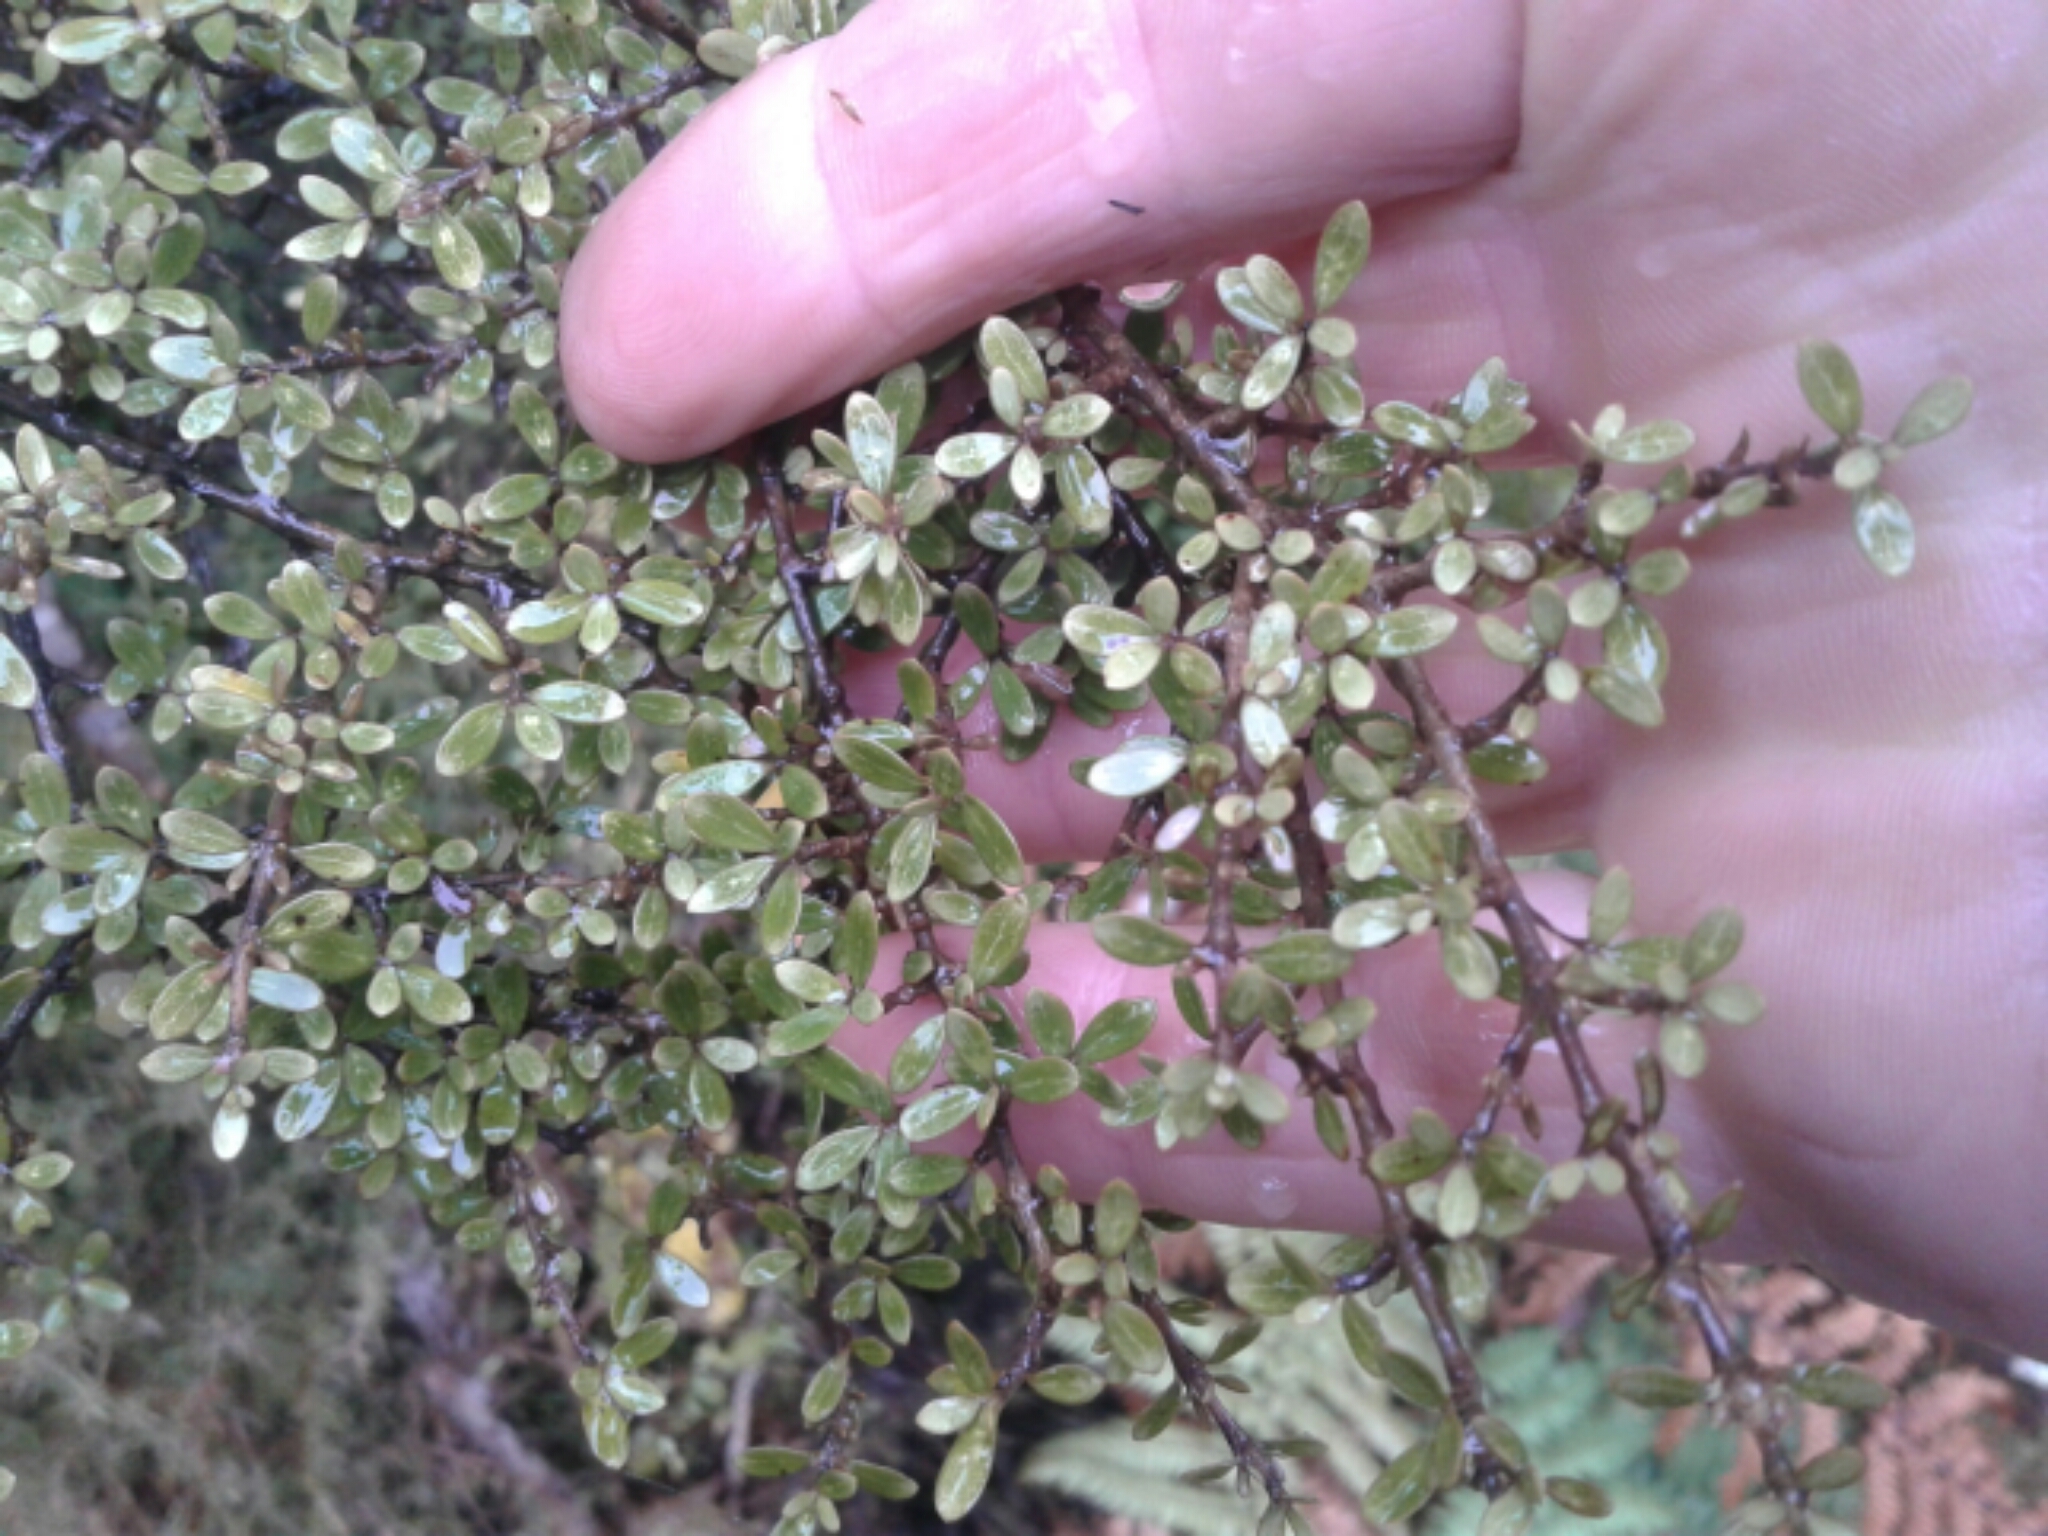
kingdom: Plantae
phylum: Tracheophyta
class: Magnoliopsida
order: Gentianales
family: Rubiaceae
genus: Coprosma
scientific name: Coprosma dumosa
